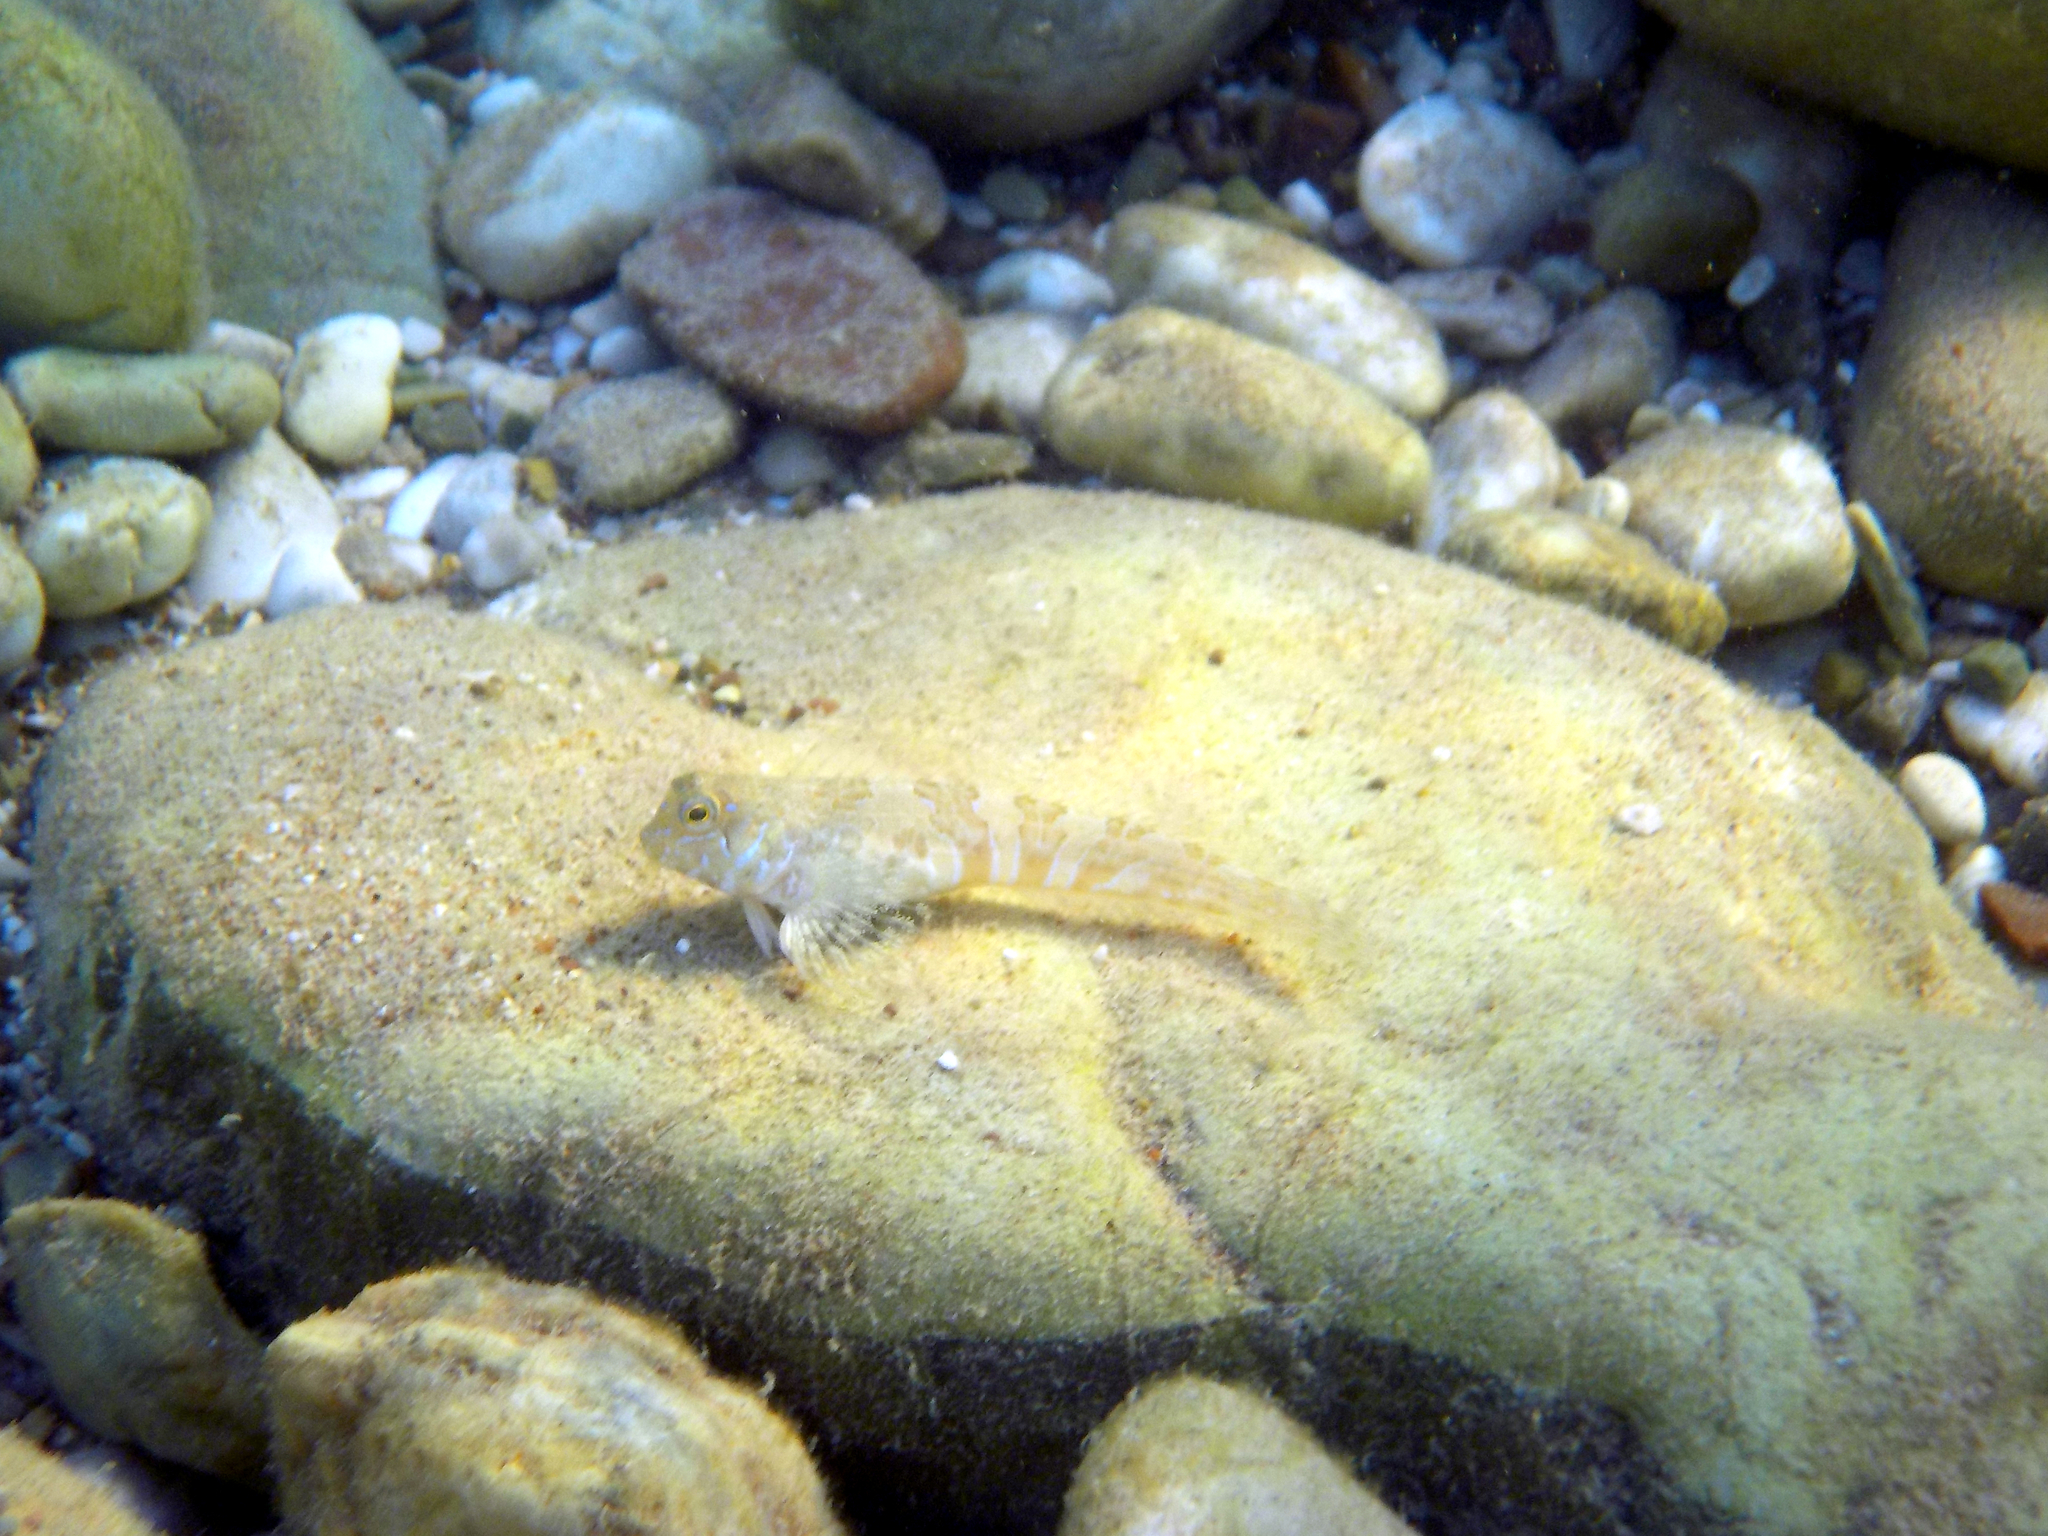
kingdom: Animalia
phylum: Chordata
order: Perciformes
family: Blenniidae
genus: Aidablennius
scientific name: Aidablennius sphynx
